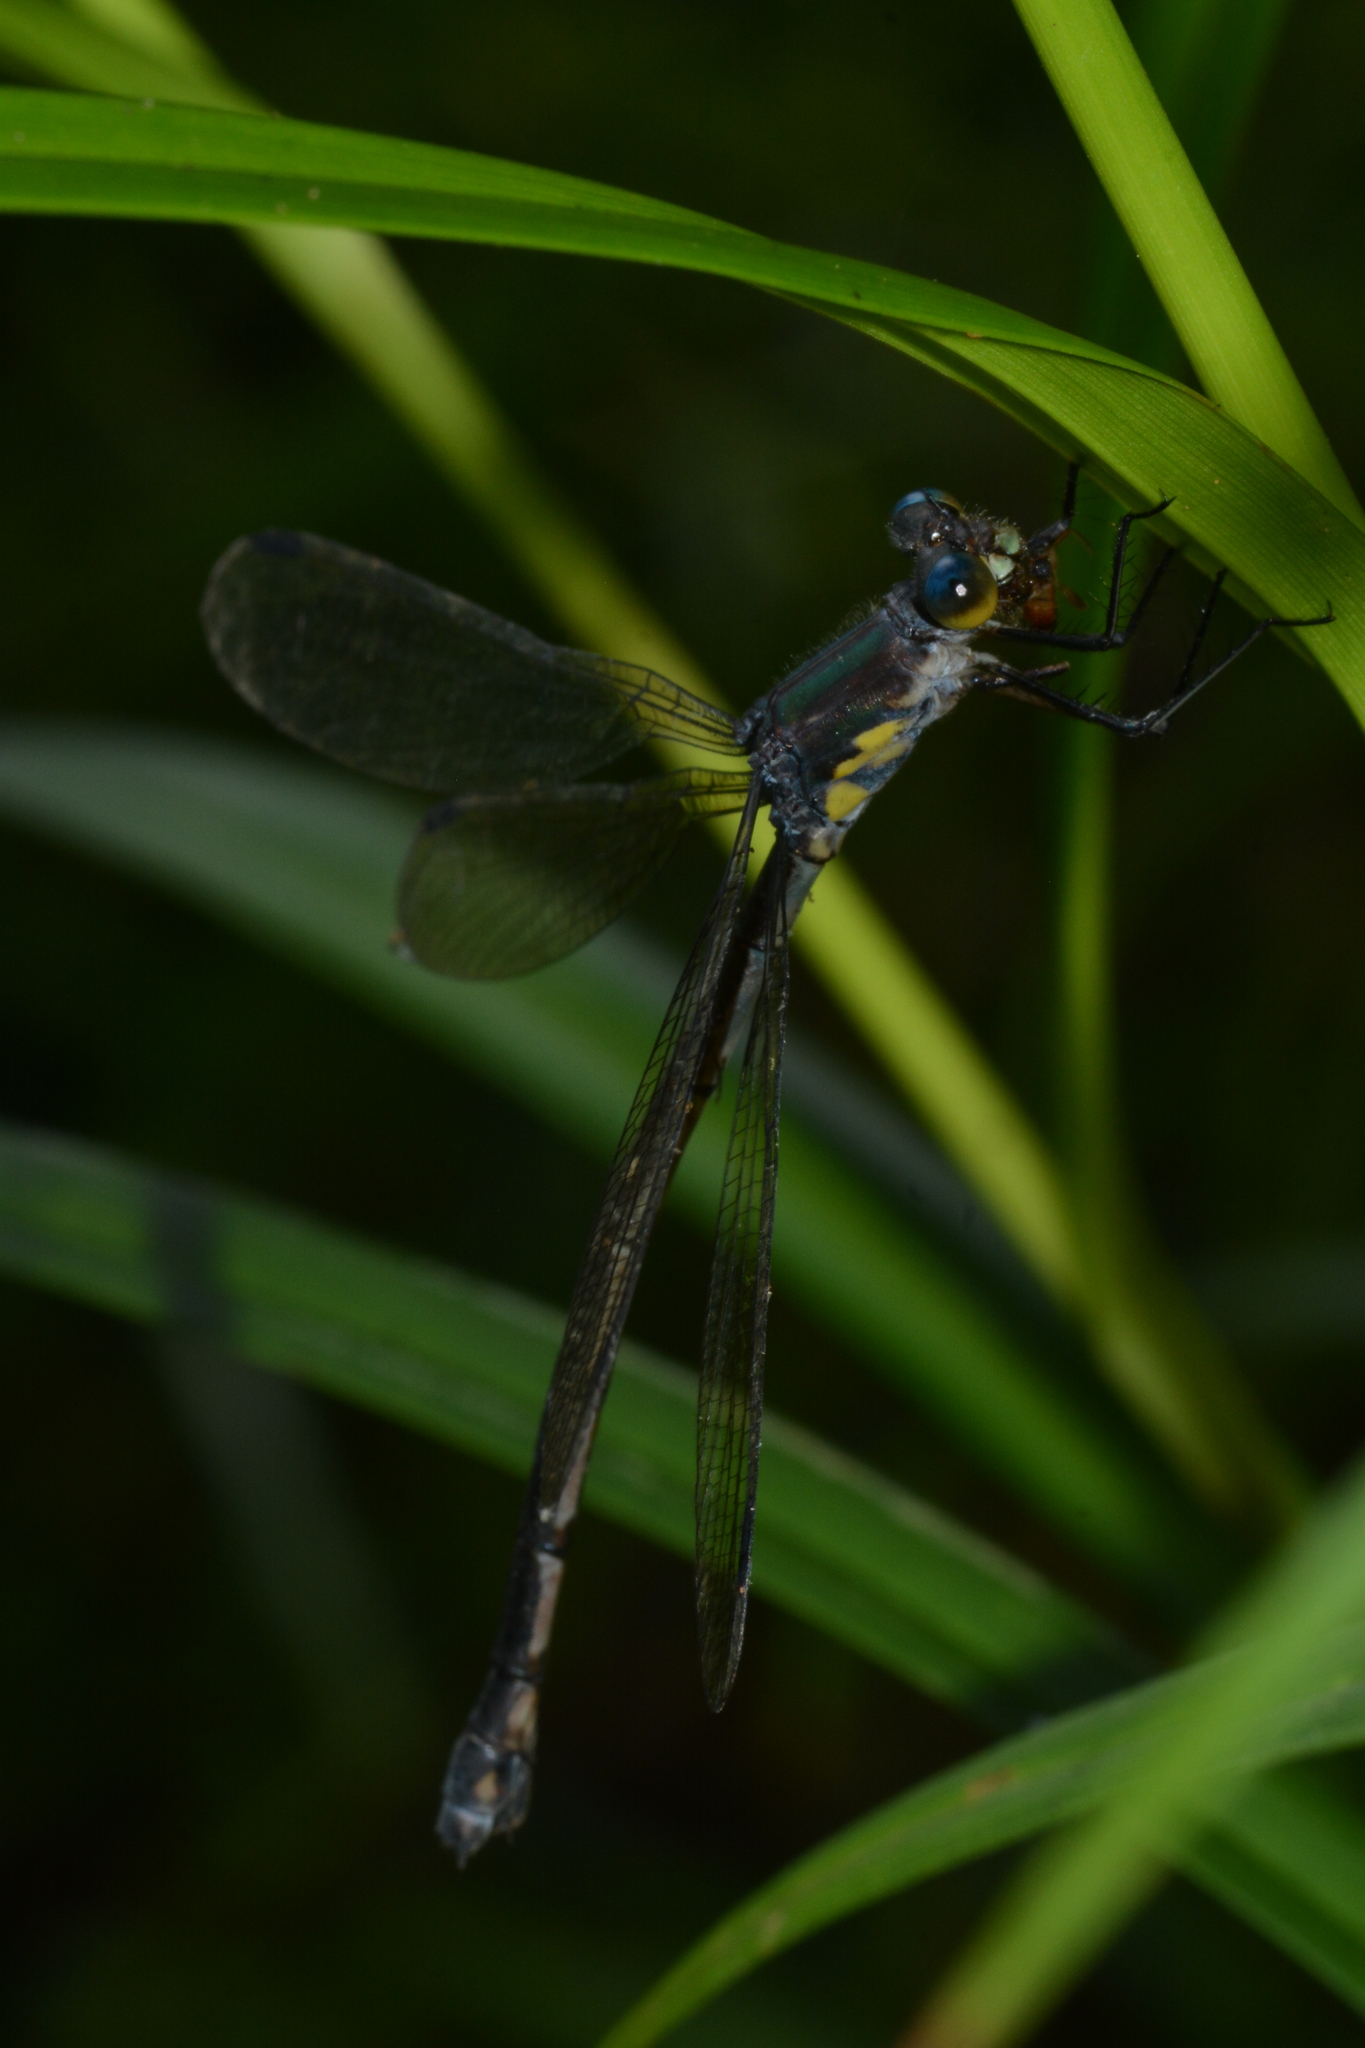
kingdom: Animalia
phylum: Arthropoda
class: Insecta
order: Odonata
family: Lestidae
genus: Lestes
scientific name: Lestes eurinus
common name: Amber-winged spreadwing
